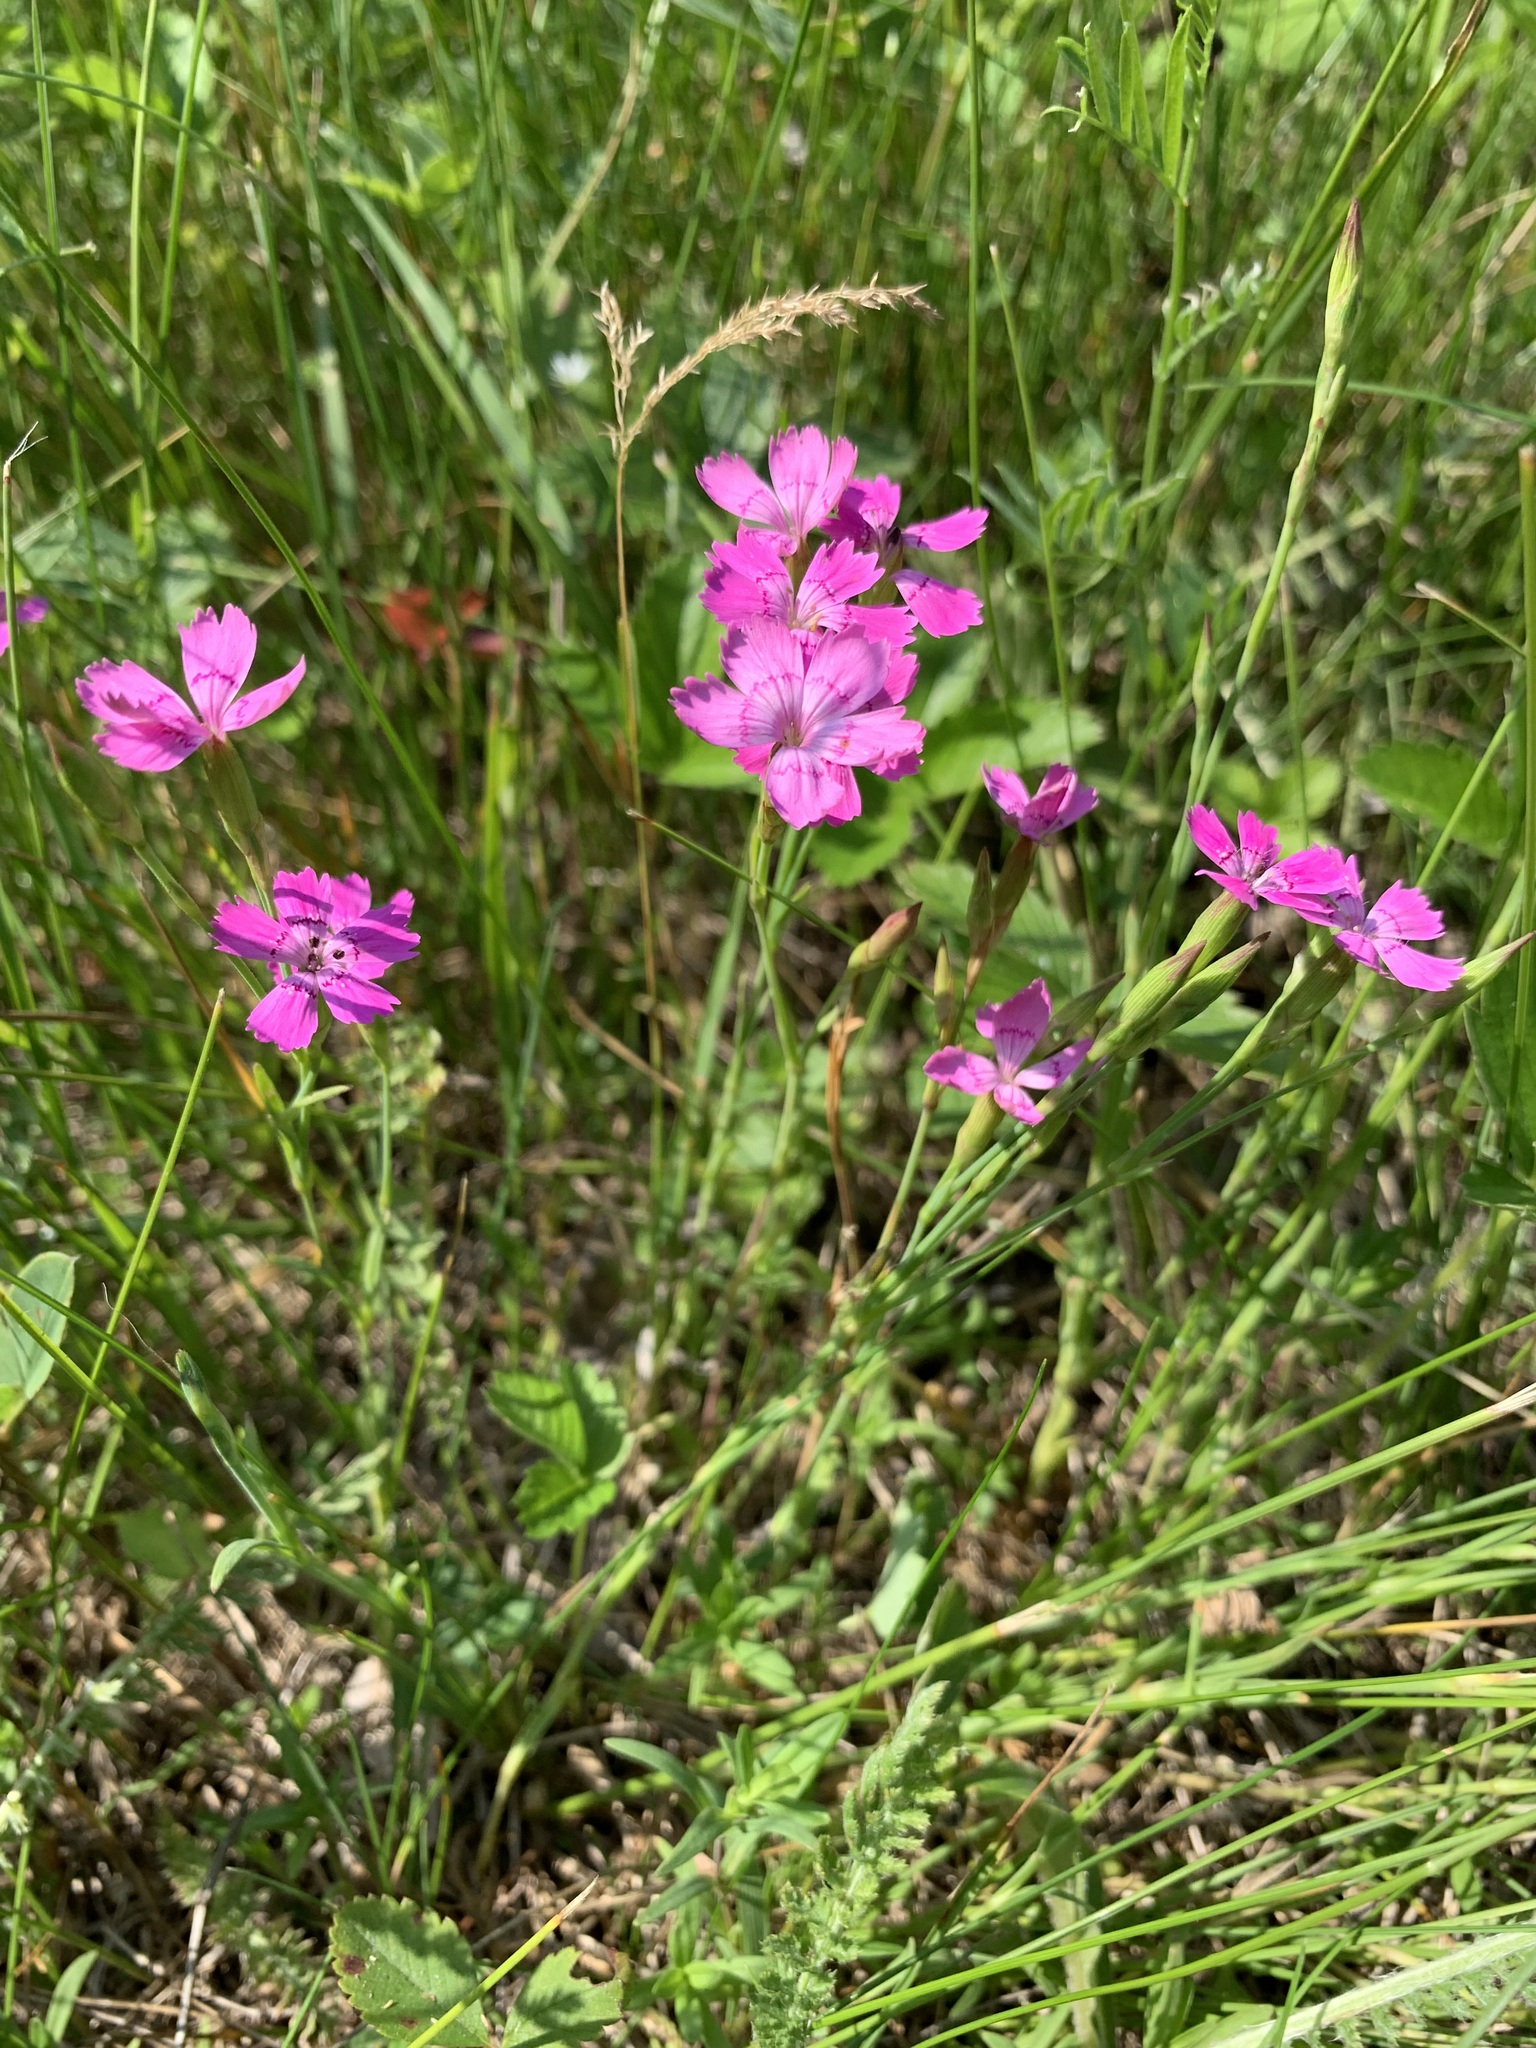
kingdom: Plantae
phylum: Tracheophyta
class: Magnoliopsida
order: Caryophyllales
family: Caryophyllaceae
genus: Dianthus
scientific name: Dianthus deltoides
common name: Maiden pink
